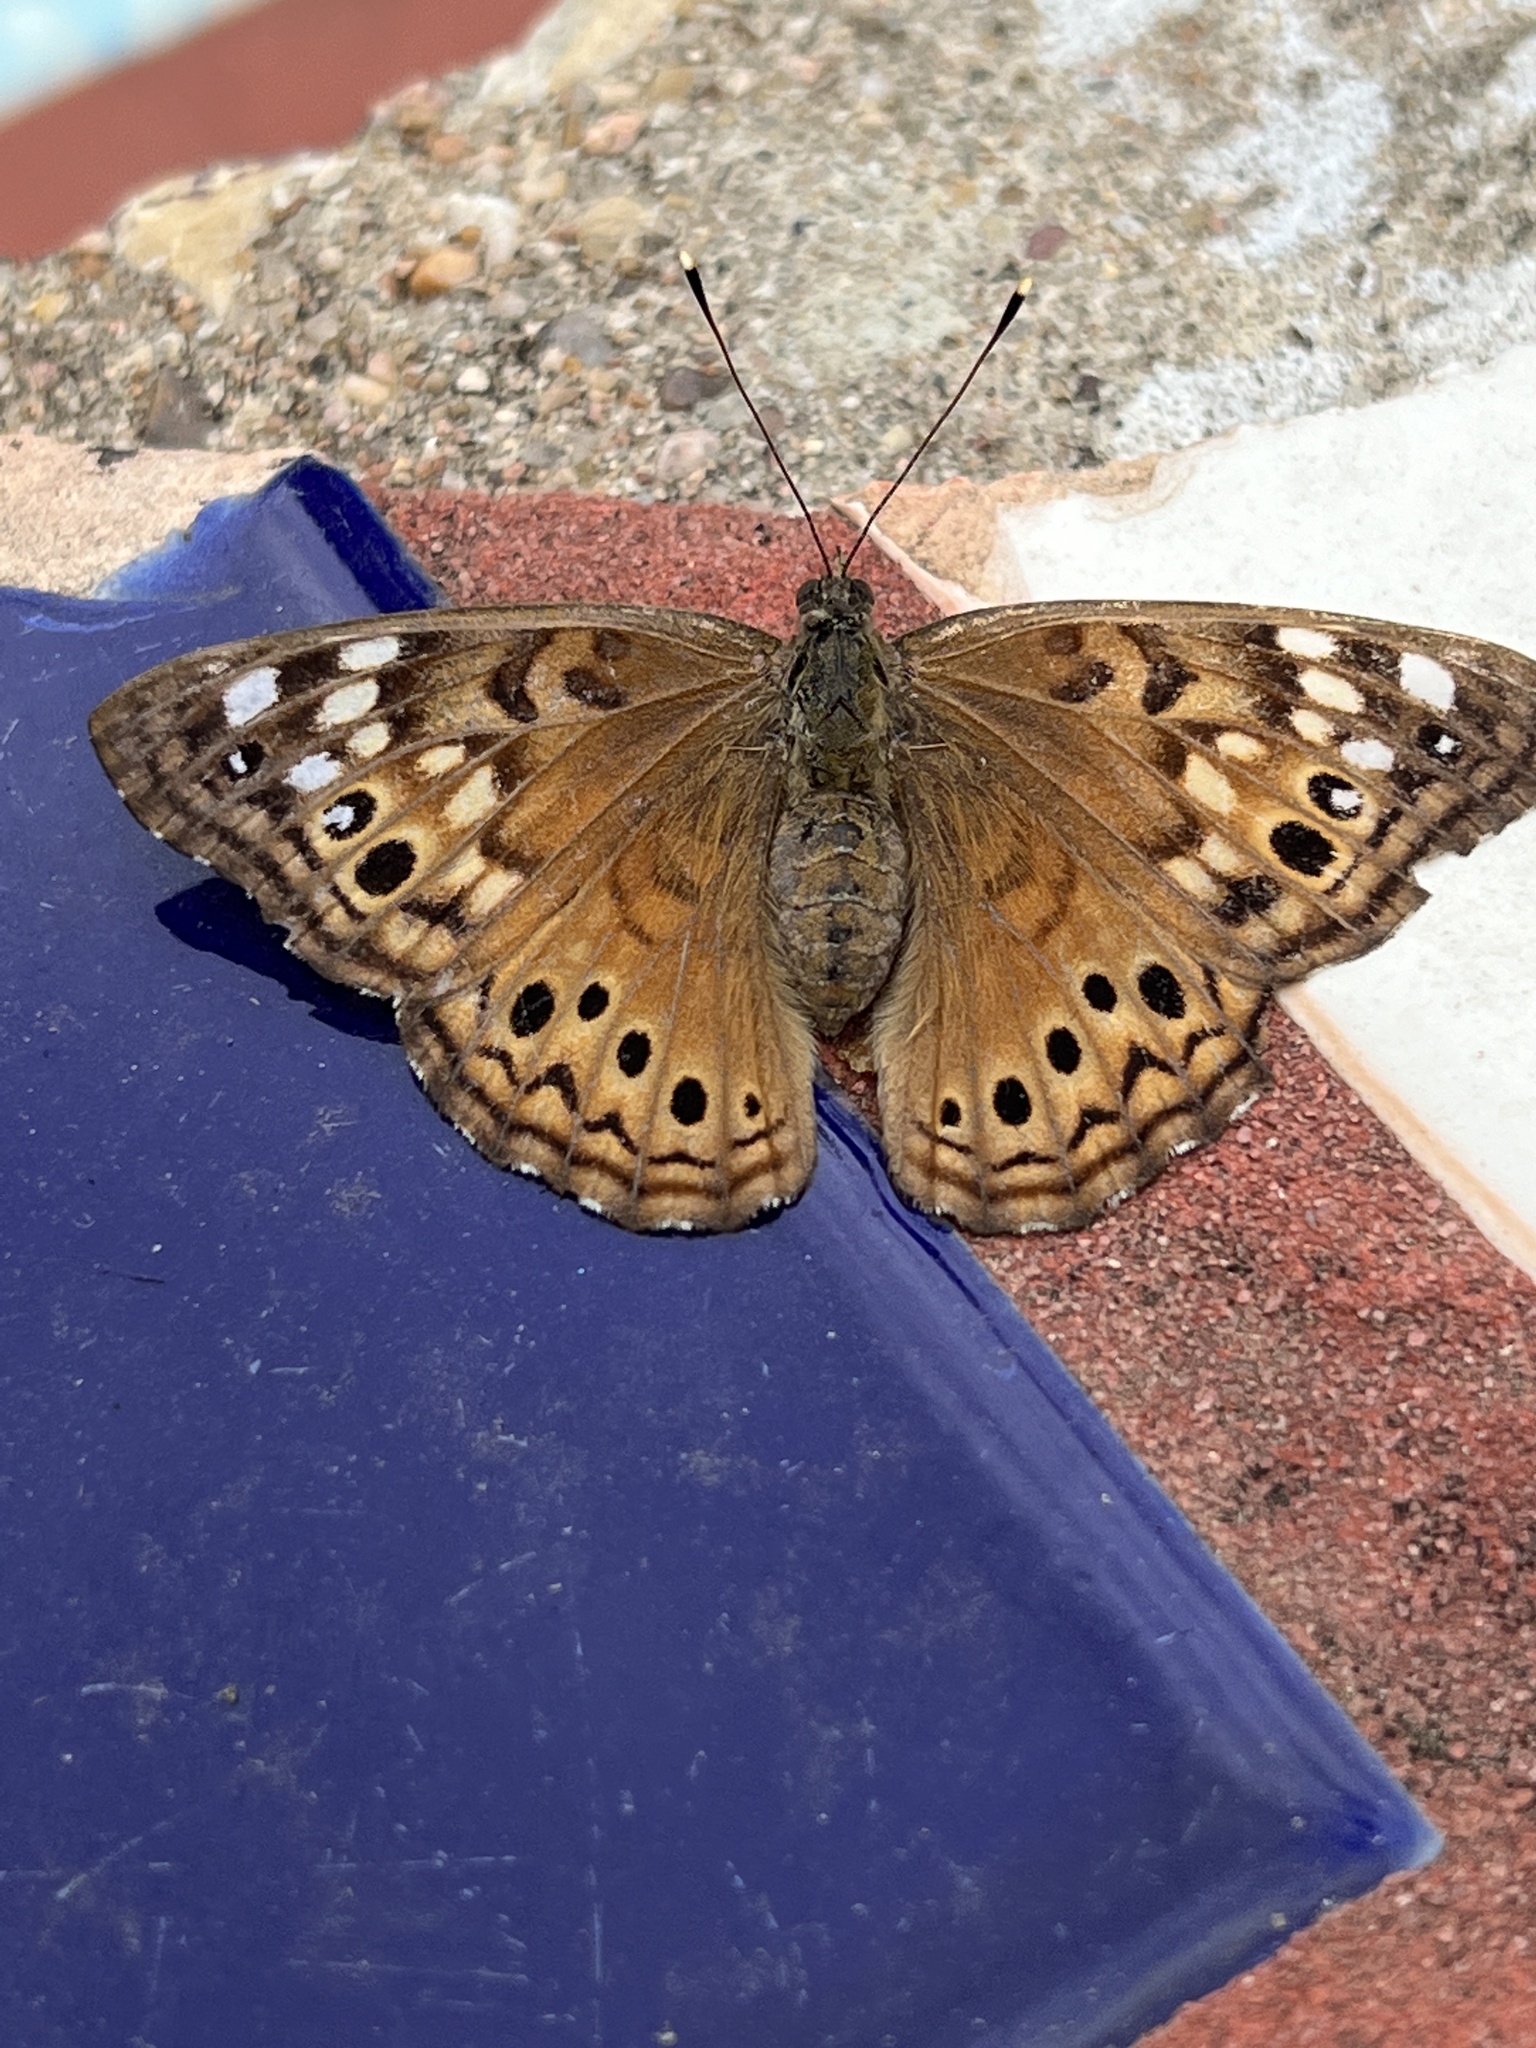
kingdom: Animalia
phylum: Arthropoda
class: Insecta
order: Lepidoptera
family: Nymphalidae
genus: Asterocampa
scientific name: Asterocampa celtis
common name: Hackberry emperor
